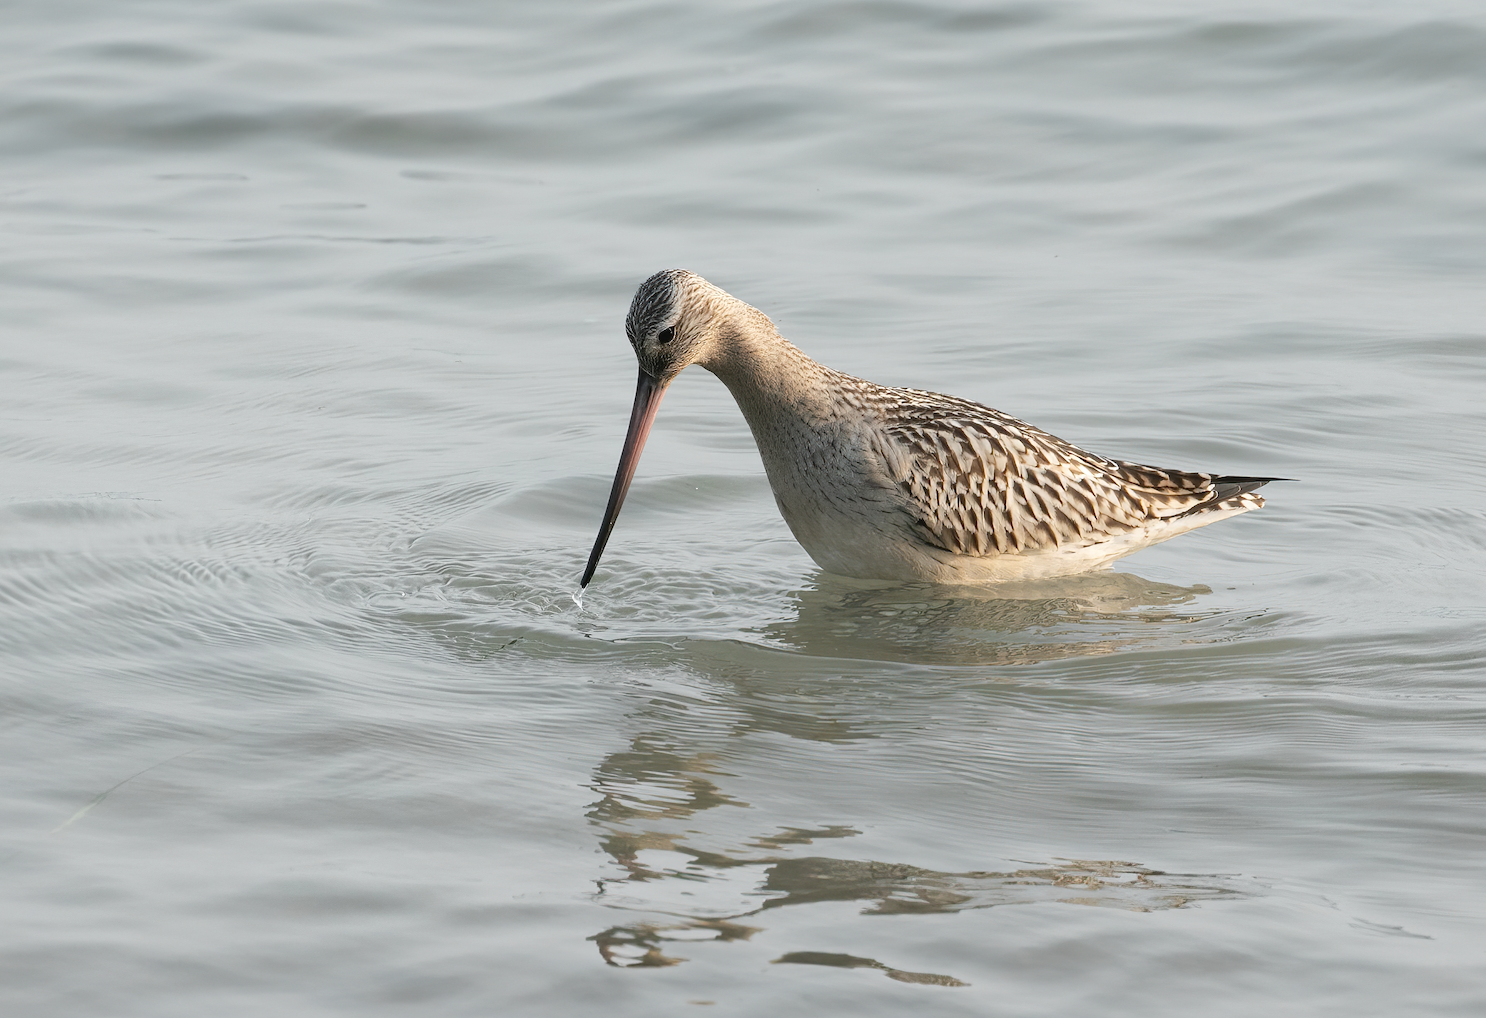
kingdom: Animalia
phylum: Chordata
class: Aves
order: Charadriiformes
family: Scolopacidae
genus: Limosa
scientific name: Limosa lapponica
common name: Bar-tailed godwit
